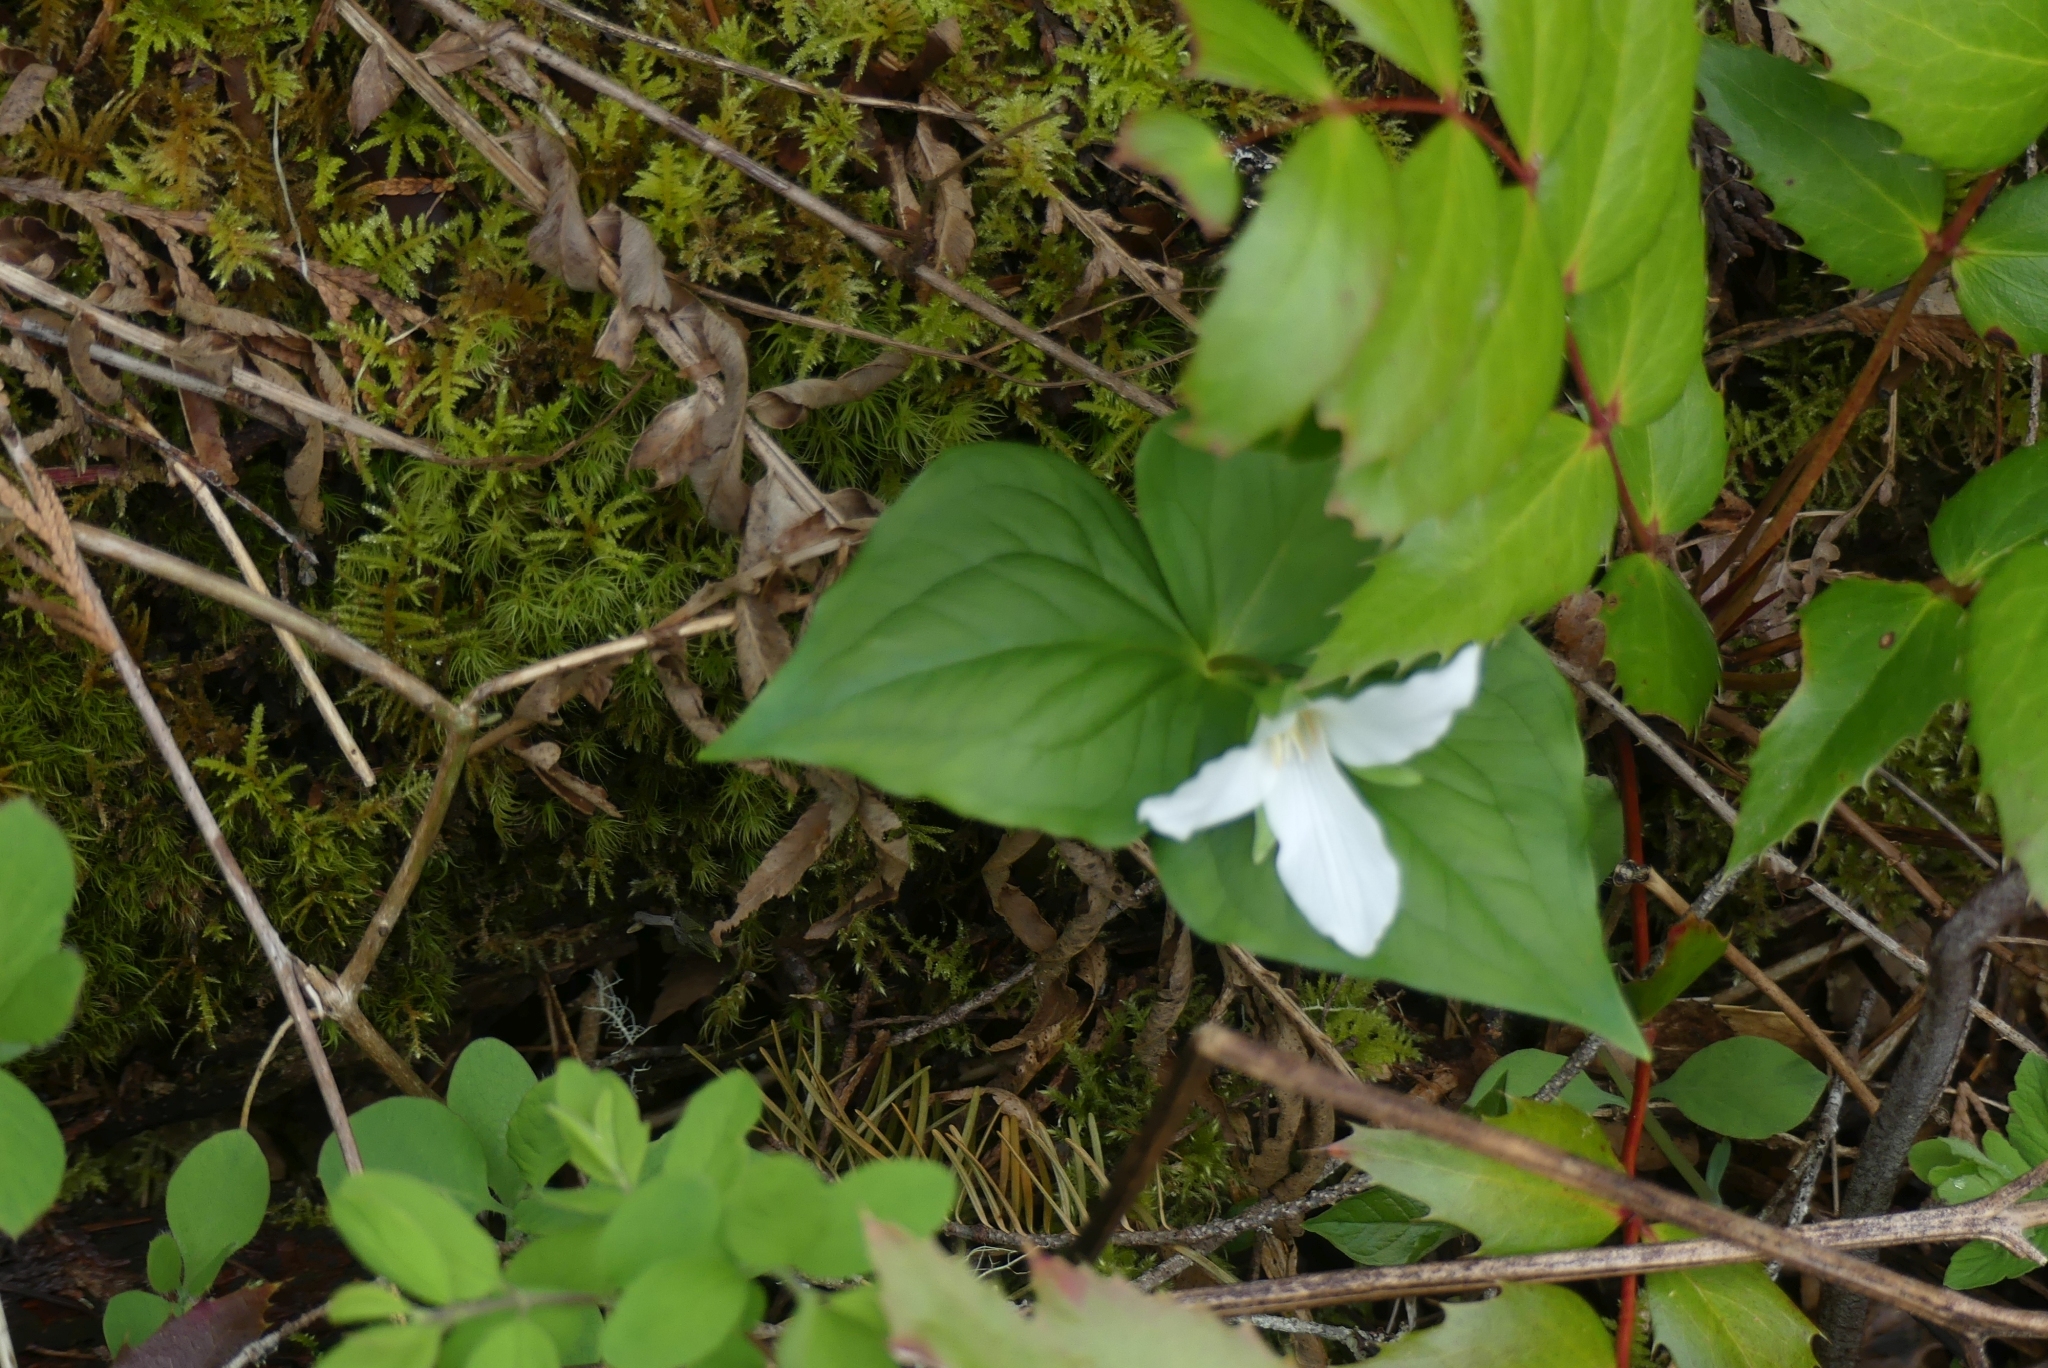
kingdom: Plantae
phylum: Tracheophyta
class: Liliopsida
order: Liliales
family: Melanthiaceae
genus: Trillium
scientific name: Trillium ovatum
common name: Pacific trillium
